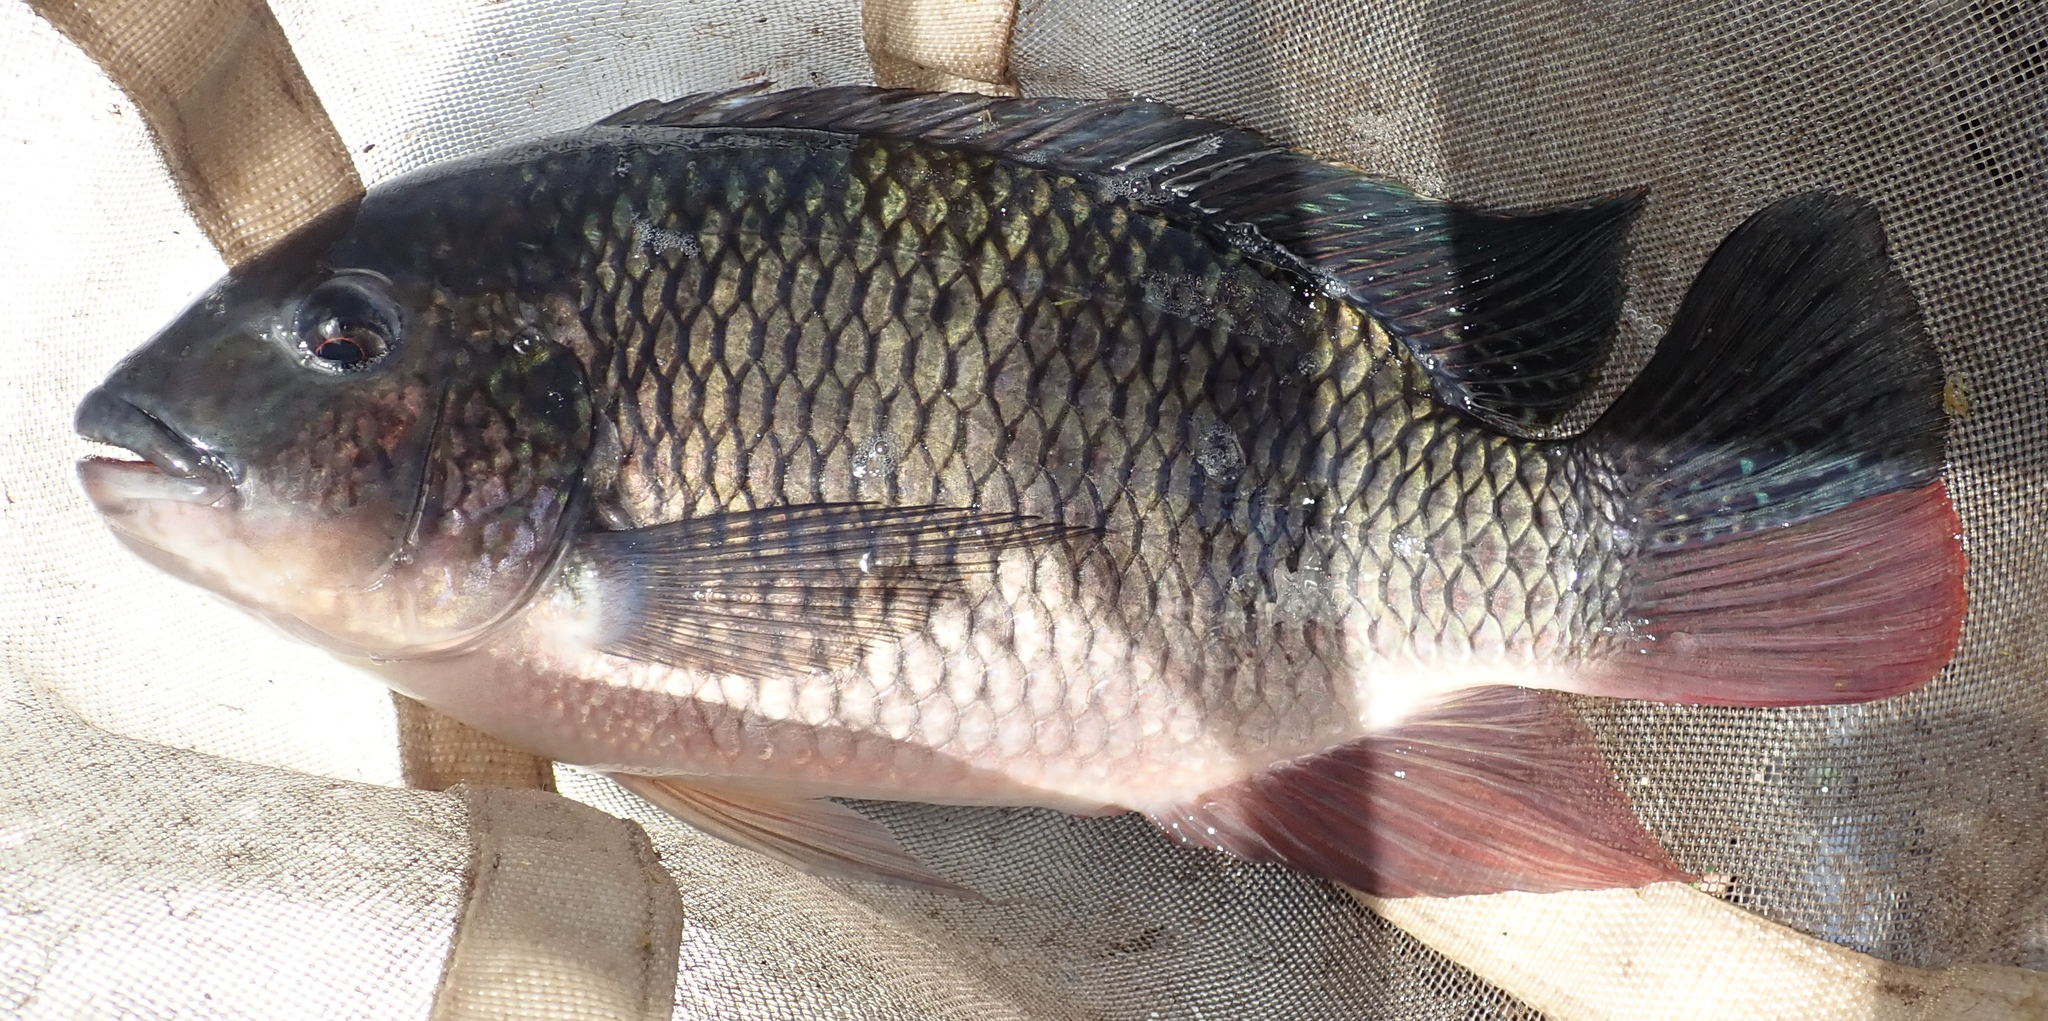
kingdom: Animalia
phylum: Chordata
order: Perciformes
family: Cichlidae
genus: Coptodon
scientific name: Coptodon rendalli
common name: Redbreast tilapia
